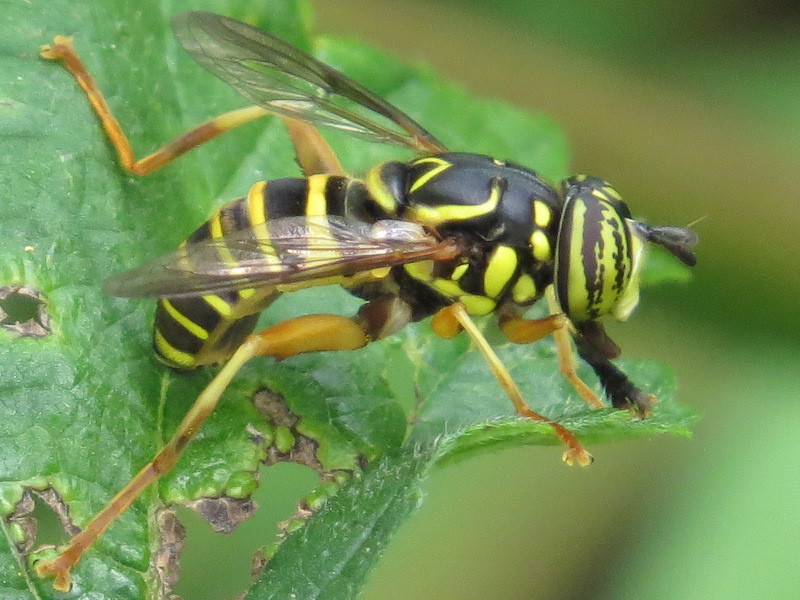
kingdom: Animalia
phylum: Arthropoda
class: Insecta
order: Diptera
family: Syrphidae
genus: Spilomyia
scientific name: Spilomyia longicornis
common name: Eastern hornet fly
